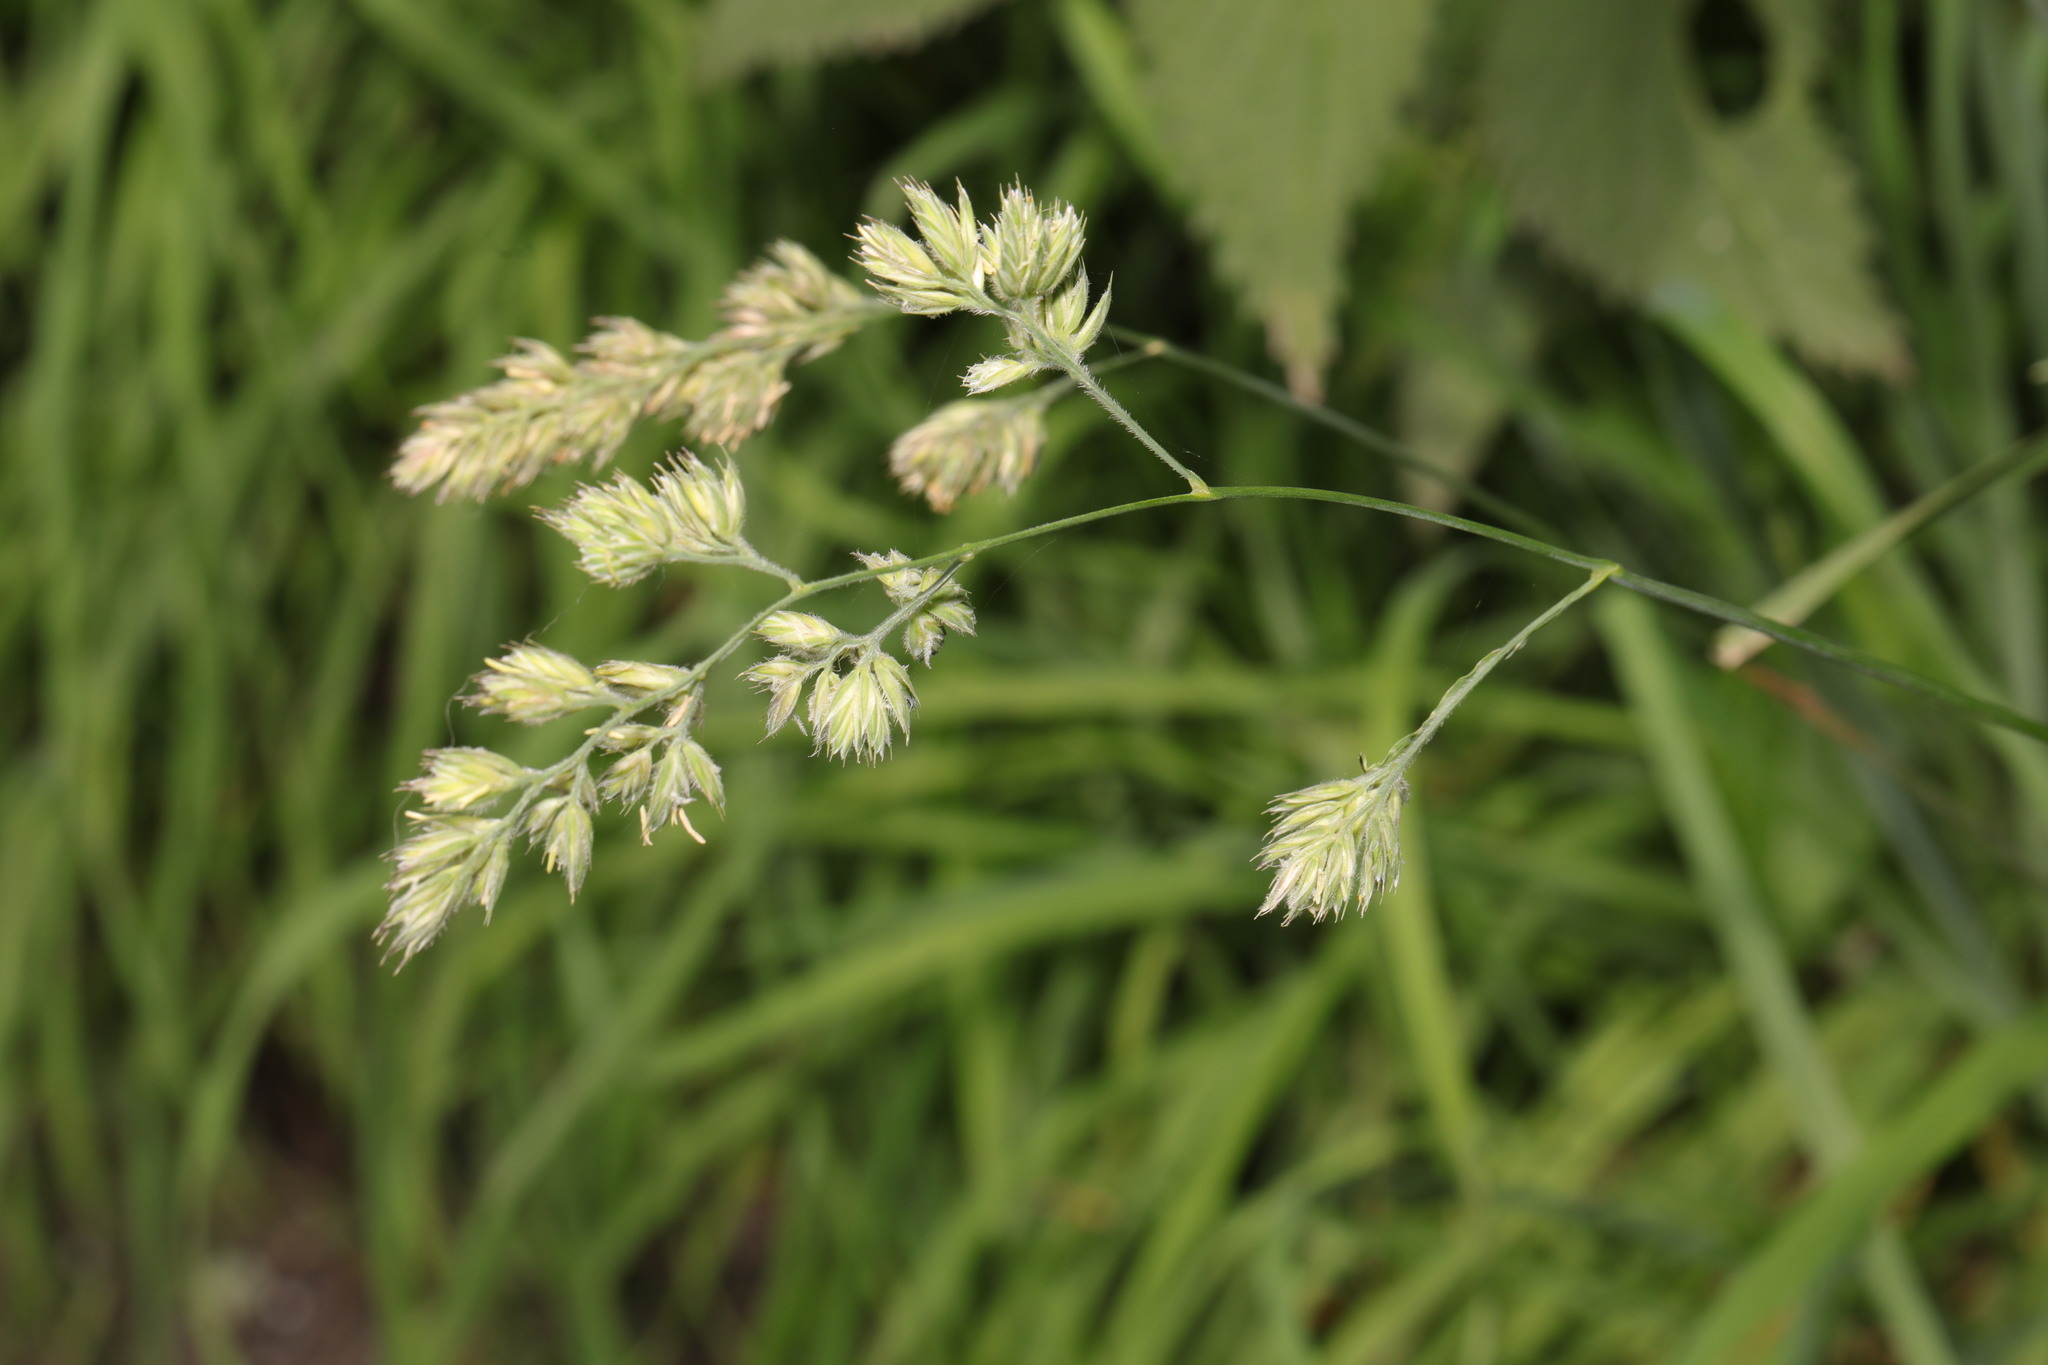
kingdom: Plantae
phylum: Tracheophyta
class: Liliopsida
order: Poales
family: Poaceae
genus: Dactylis
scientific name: Dactylis glomerata
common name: Orchardgrass
